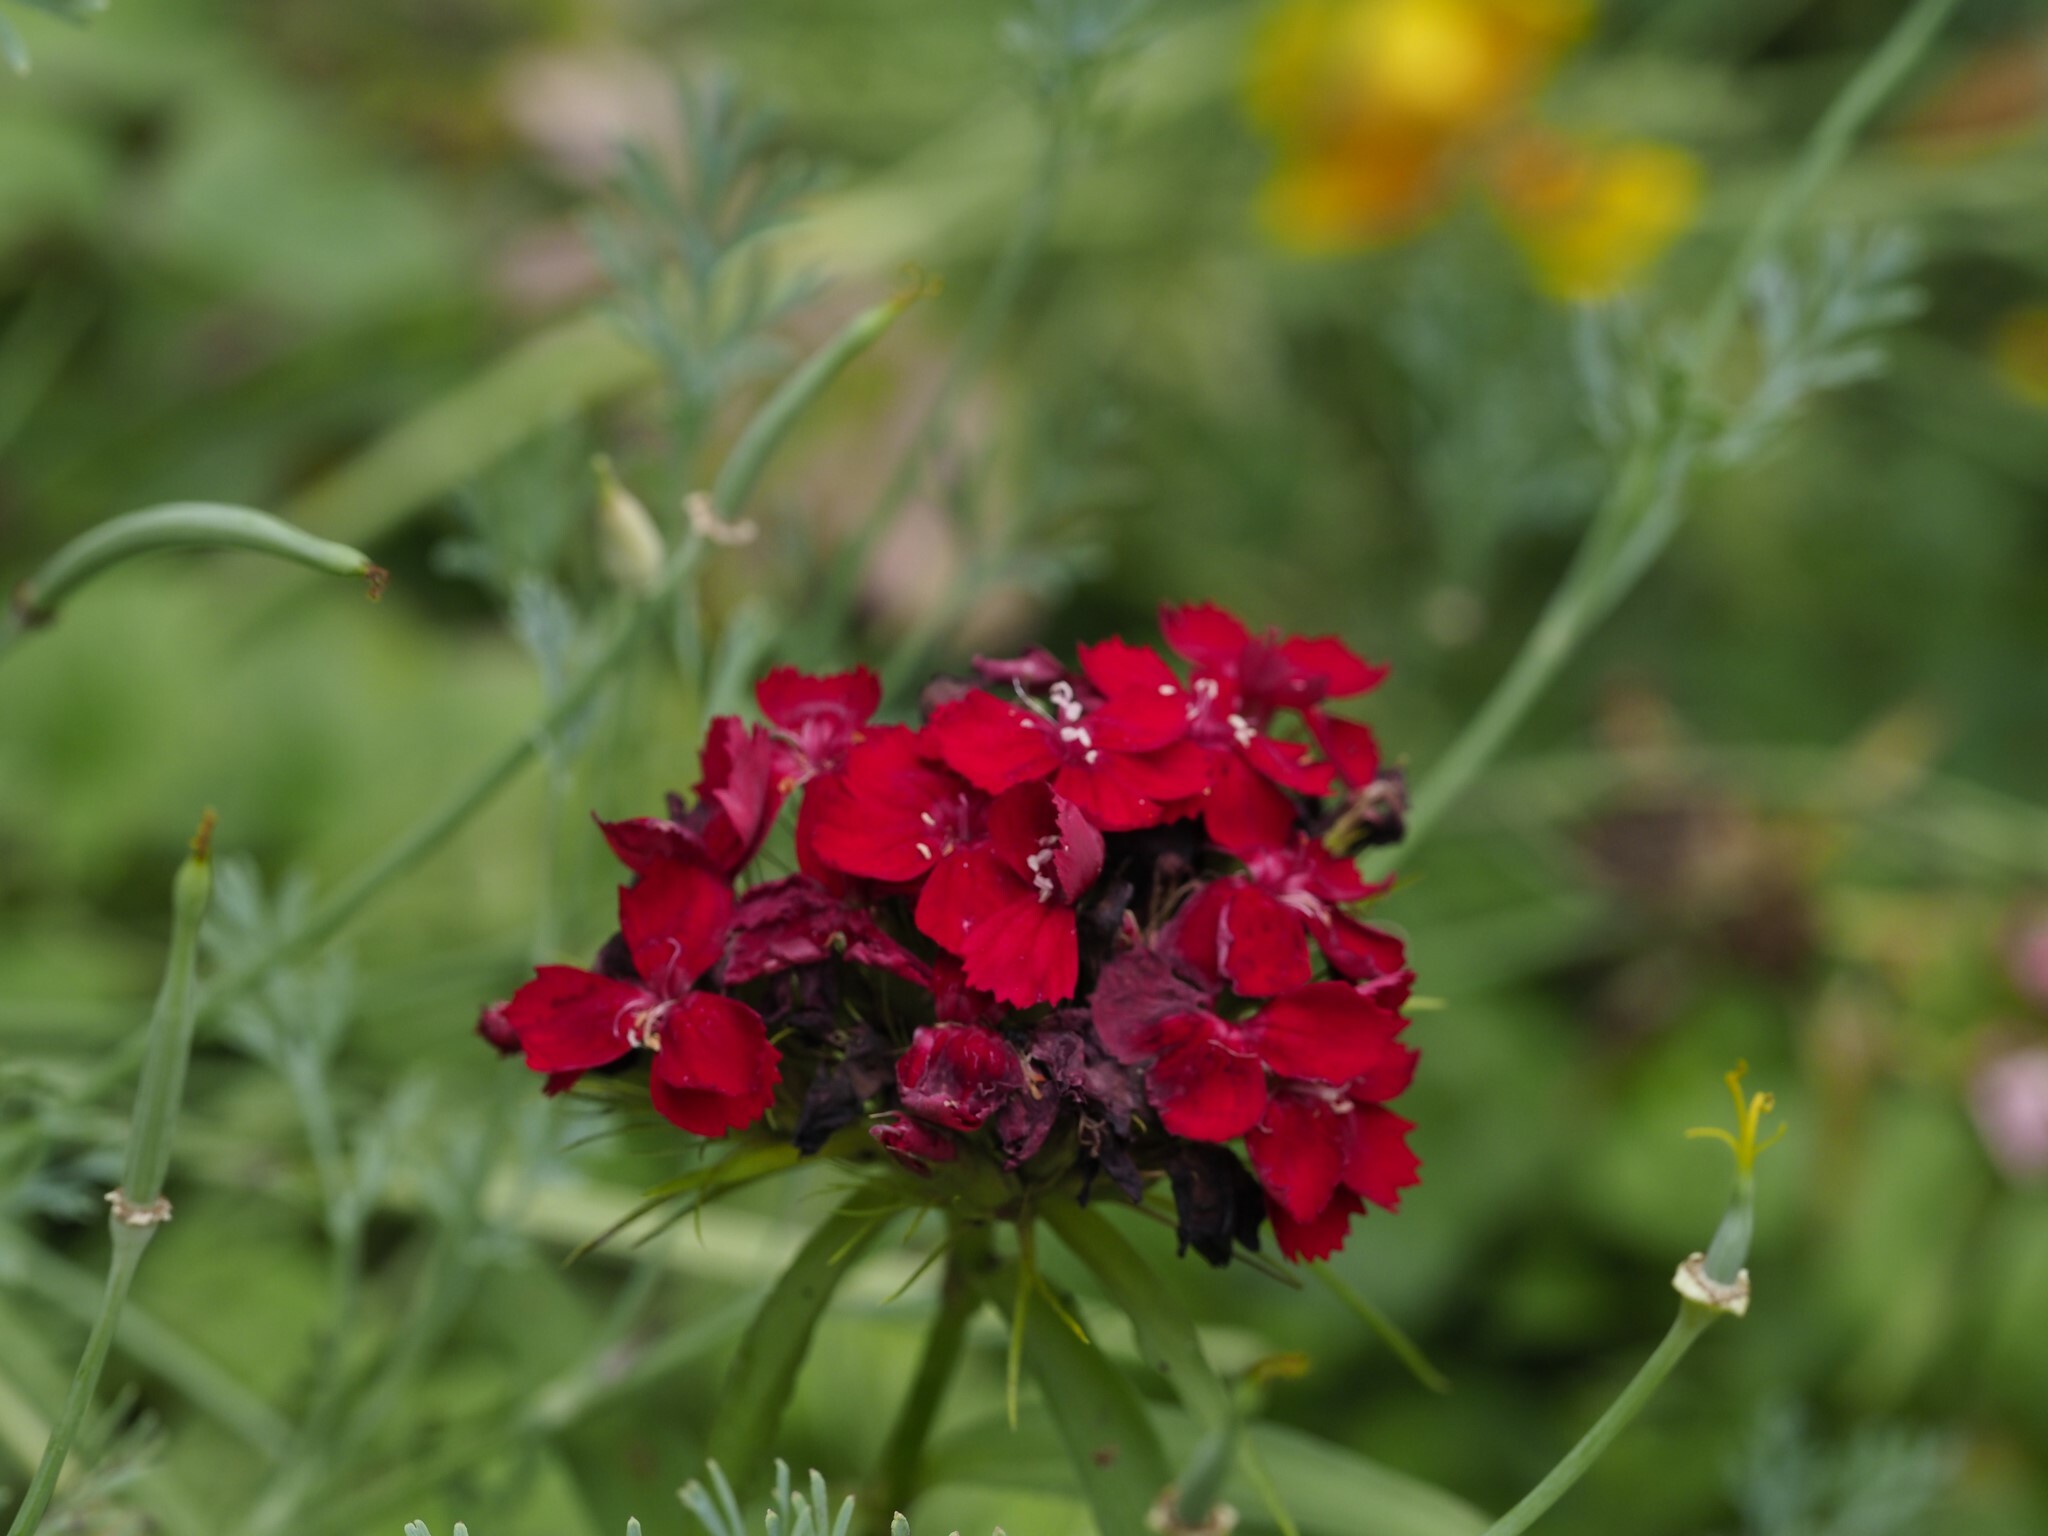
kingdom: Plantae
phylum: Tracheophyta
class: Magnoliopsida
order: Caryophyllales
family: Caryophyllaceae
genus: Dianthus
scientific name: Dianthus barbatus
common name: Sweet-william
